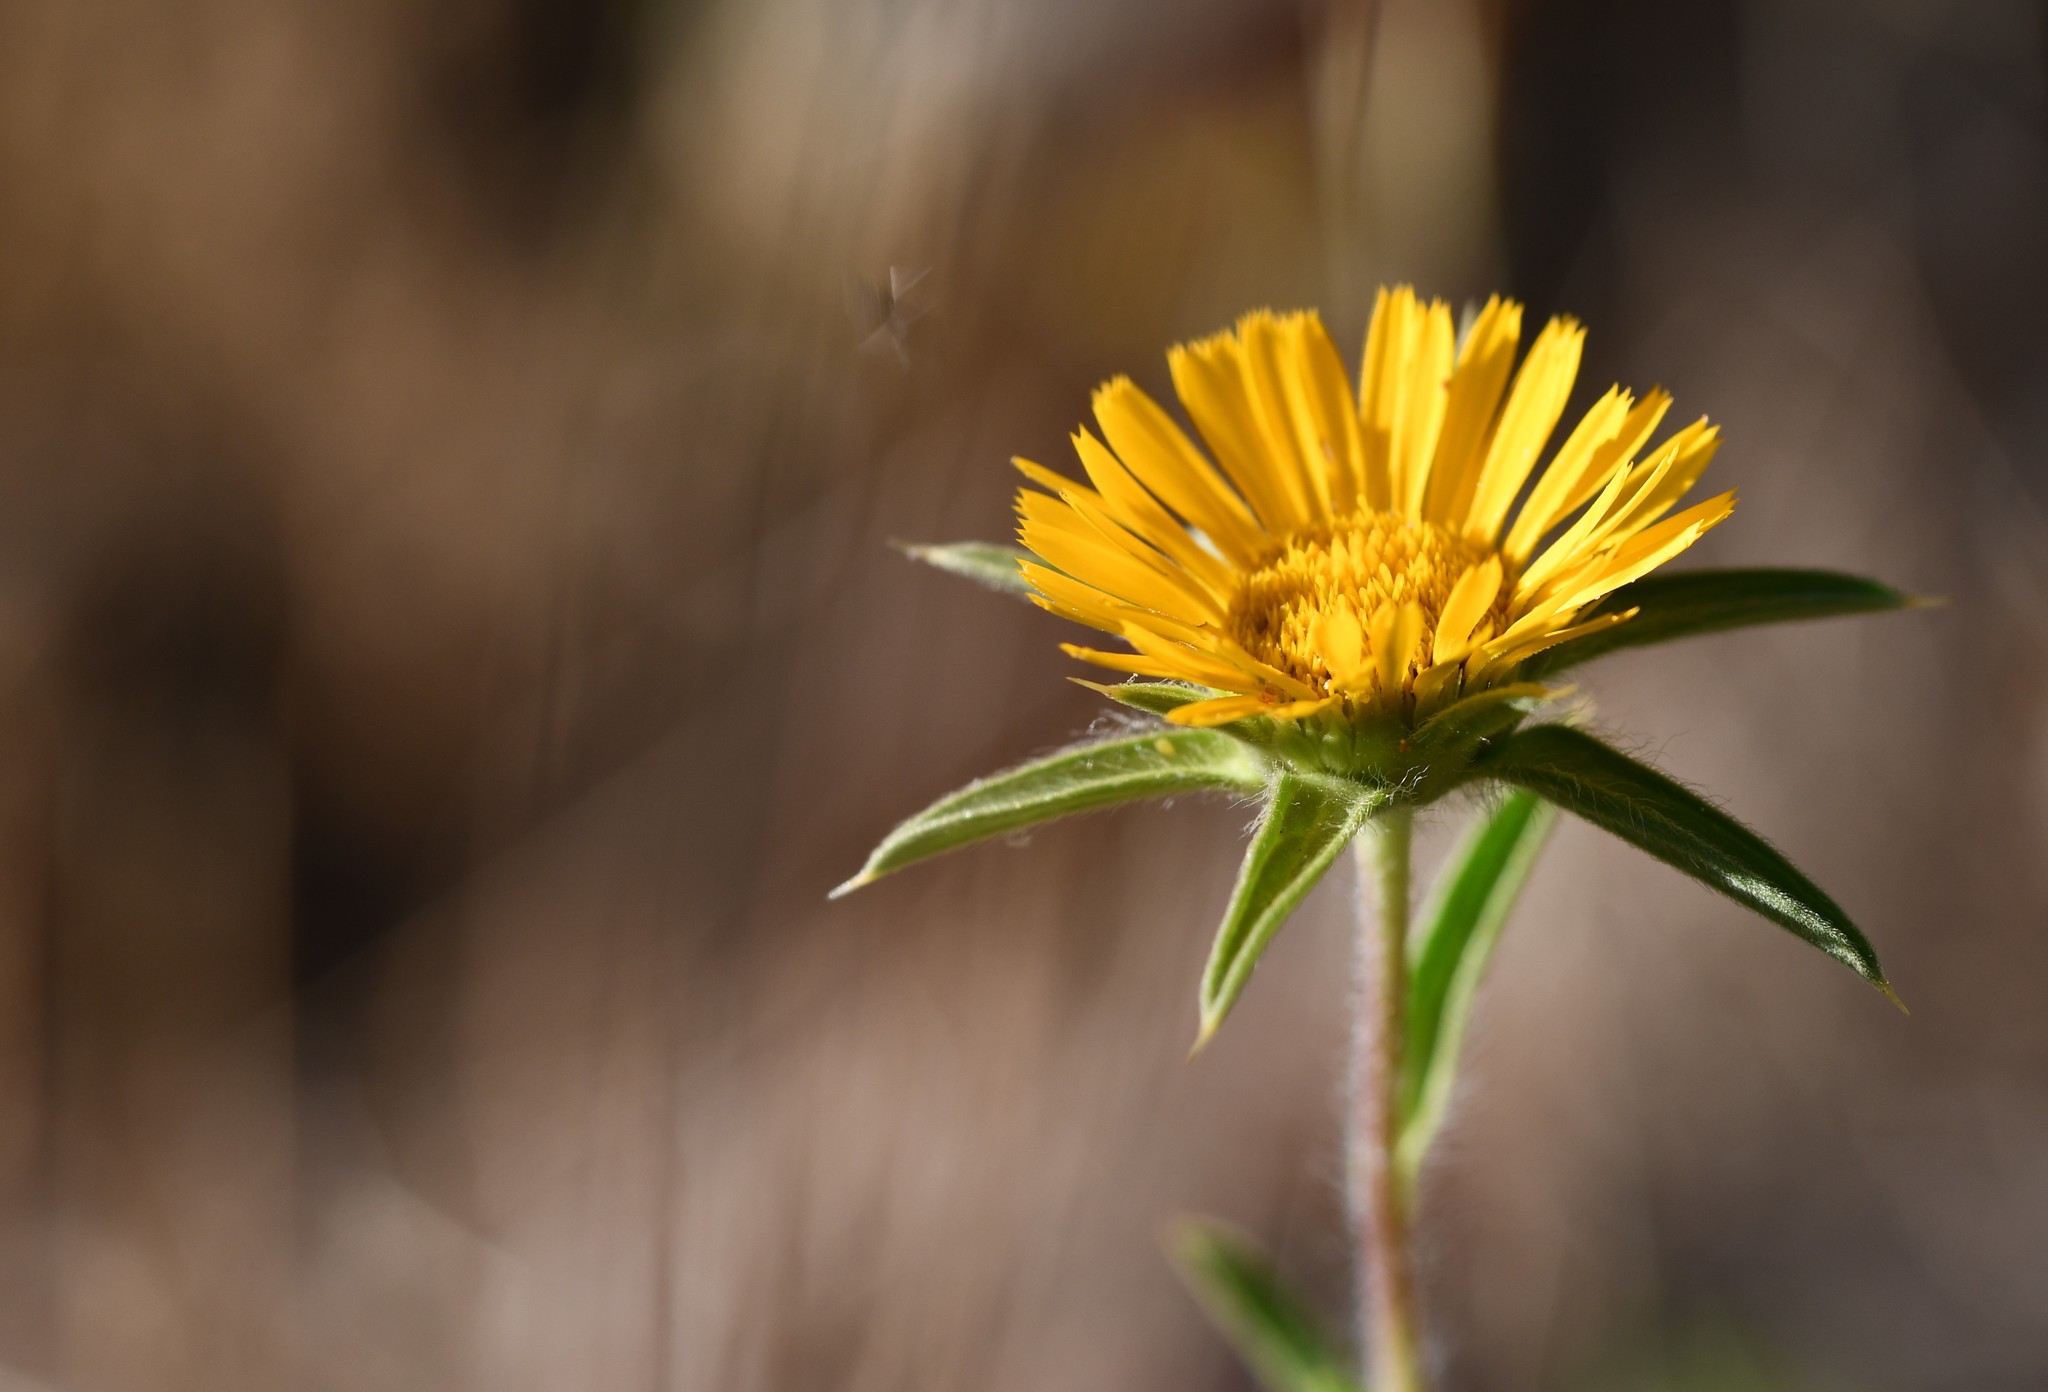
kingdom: Plantae
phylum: Tracheophyta
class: Magnoliopsida
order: Asterales
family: Asteraceae
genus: Pallenis
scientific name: Pallenis spinosa
